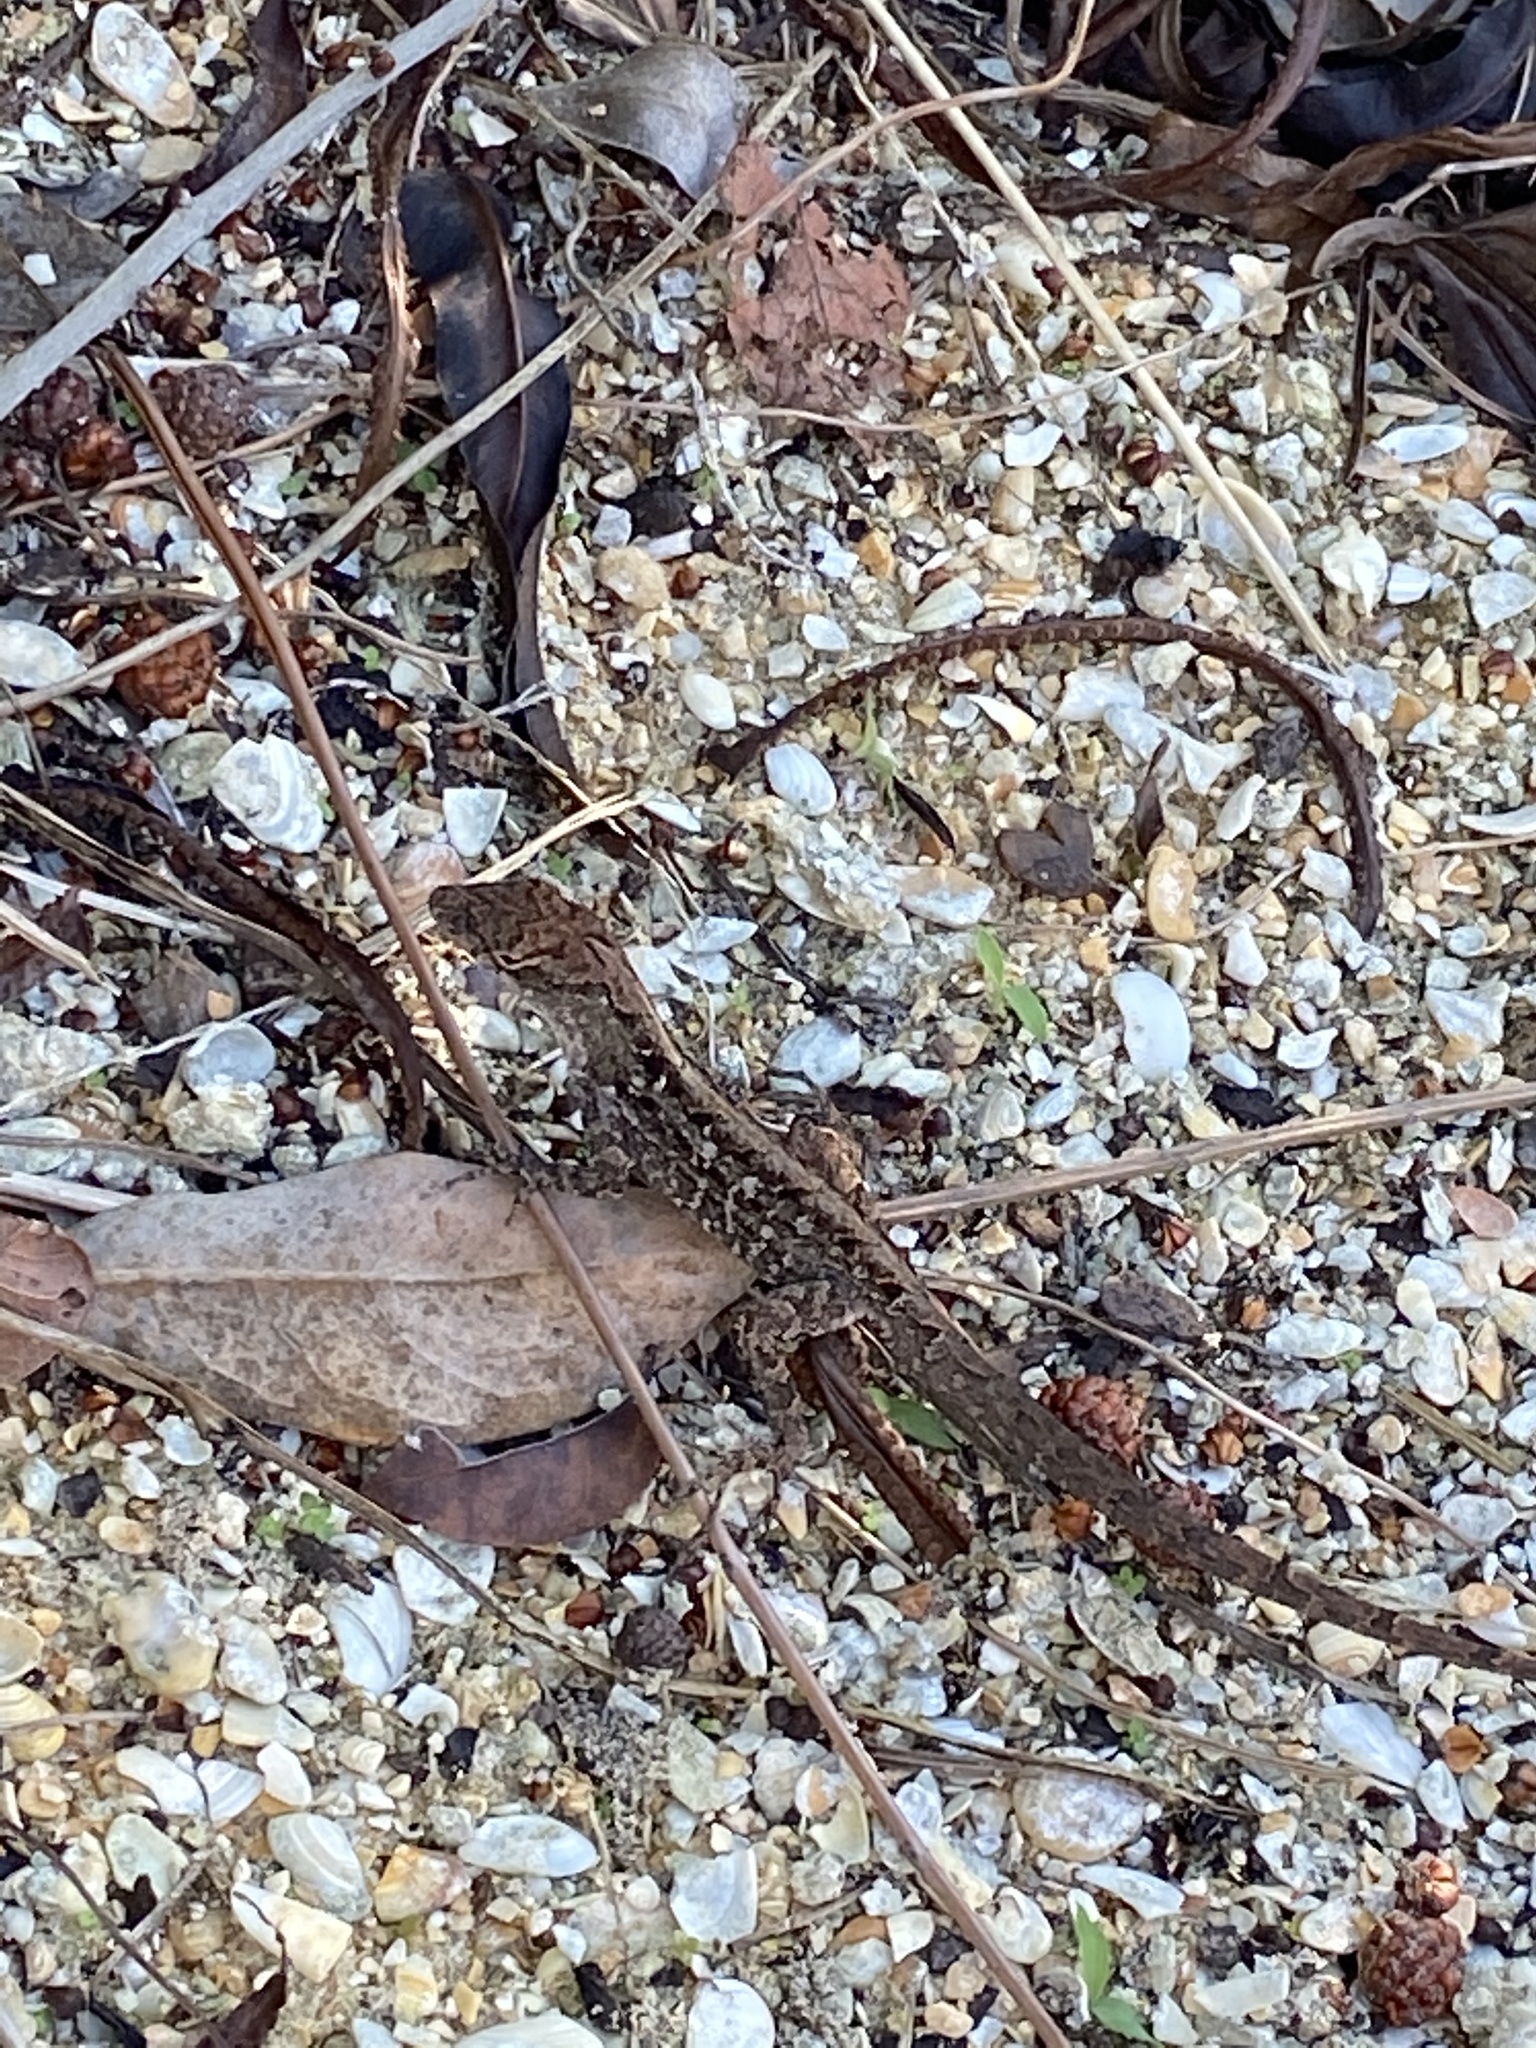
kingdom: Animalia
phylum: Chordata
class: Squamata
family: Dactyloidae
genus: Anolis
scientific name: Anolis sagrei
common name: Brown anole
